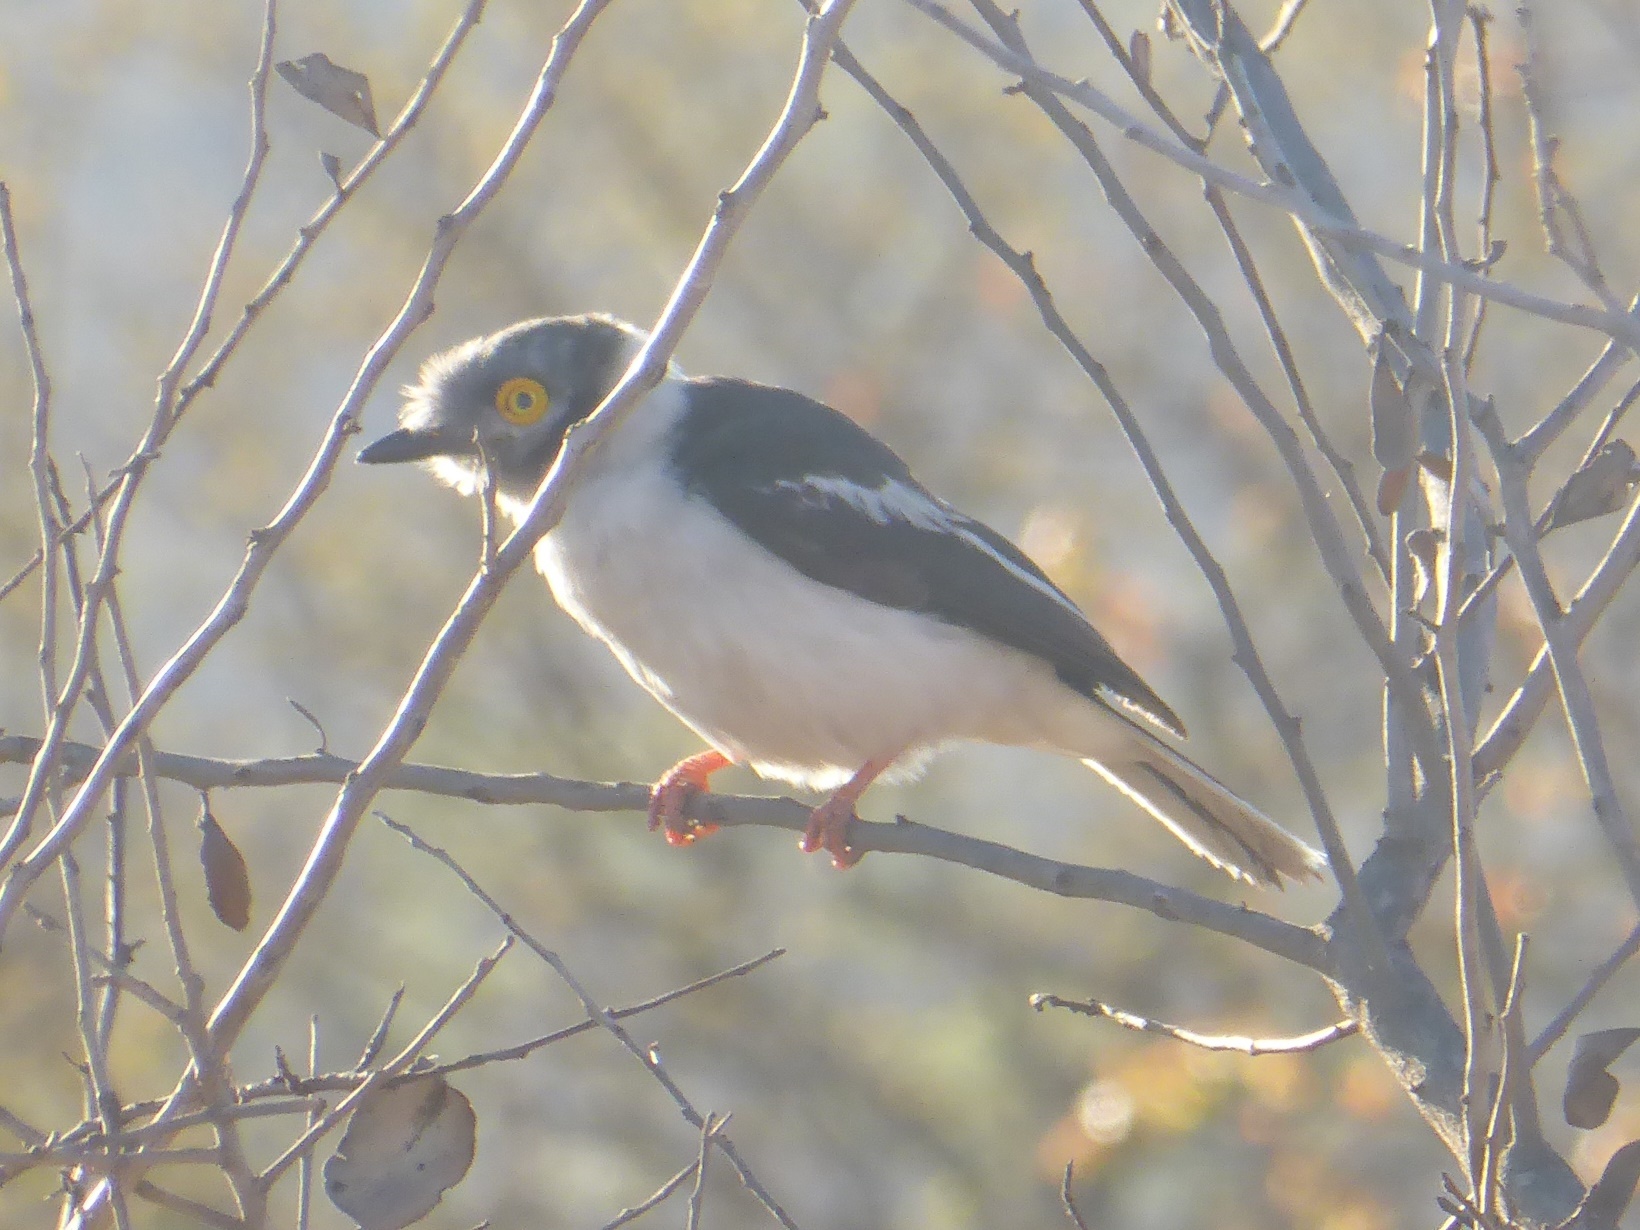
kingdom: Animalia
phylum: Chordata
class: Aves
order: Passeriformes
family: Prionopidae
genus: Prionops
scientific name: Prionops plumatus
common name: White-crested helmetshrike
